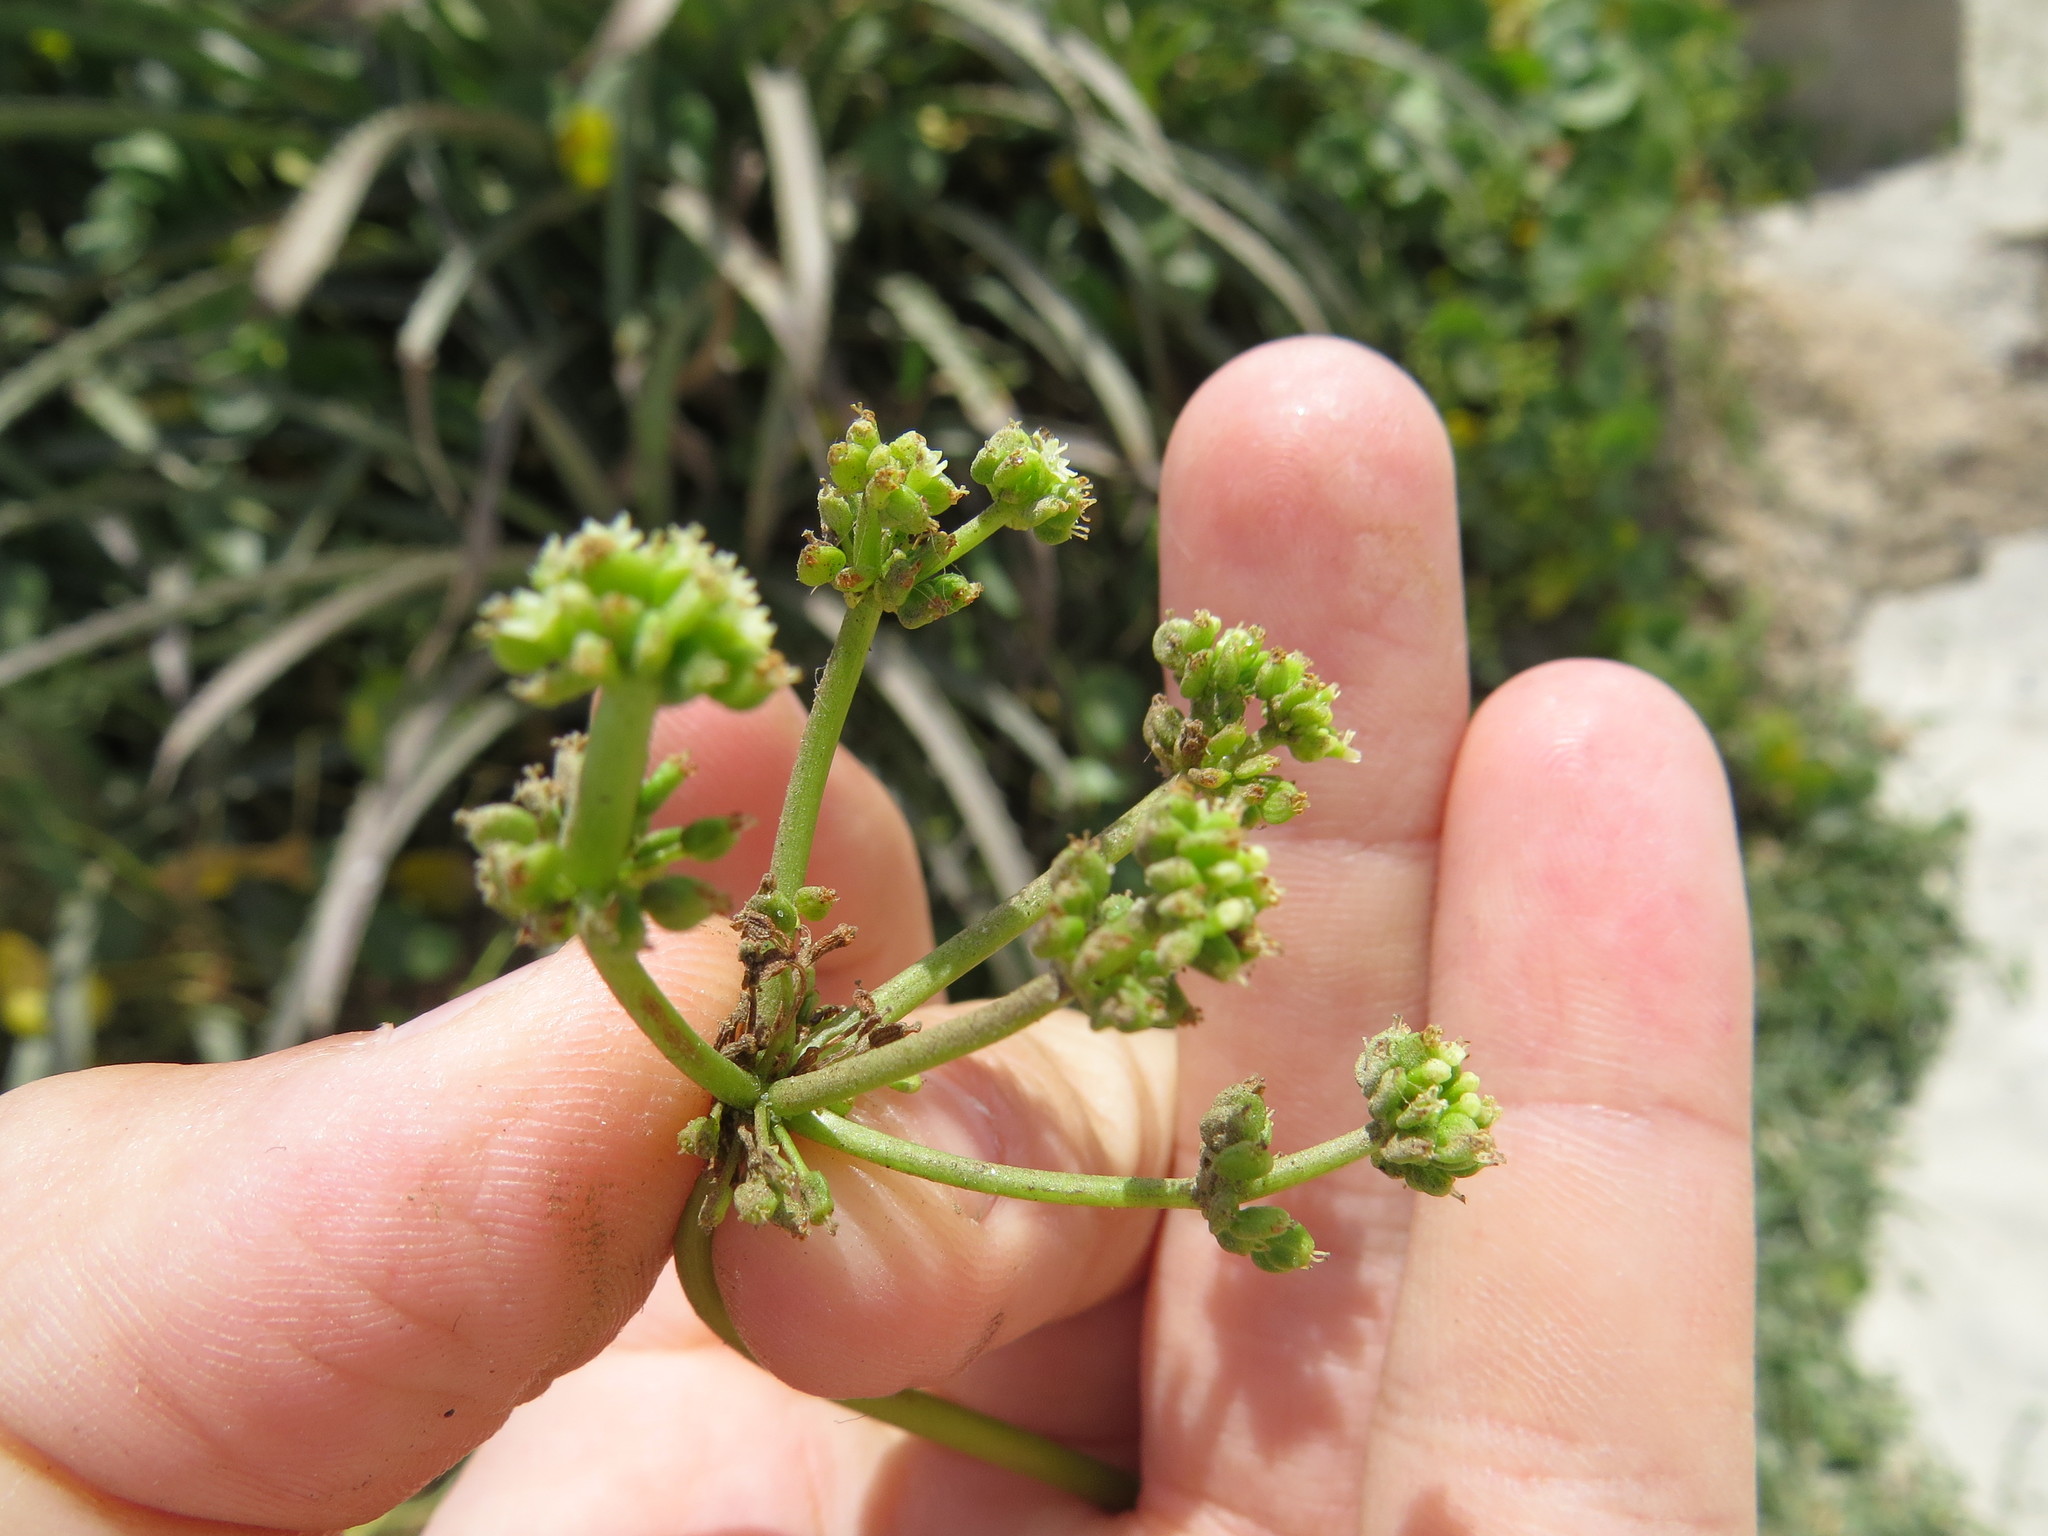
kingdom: Plantae
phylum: Tracheophyta
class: Magnoliopsida
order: Apiales
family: Araliaceae
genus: Hydrocotyle
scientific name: Hydrocotyle bonariensis
